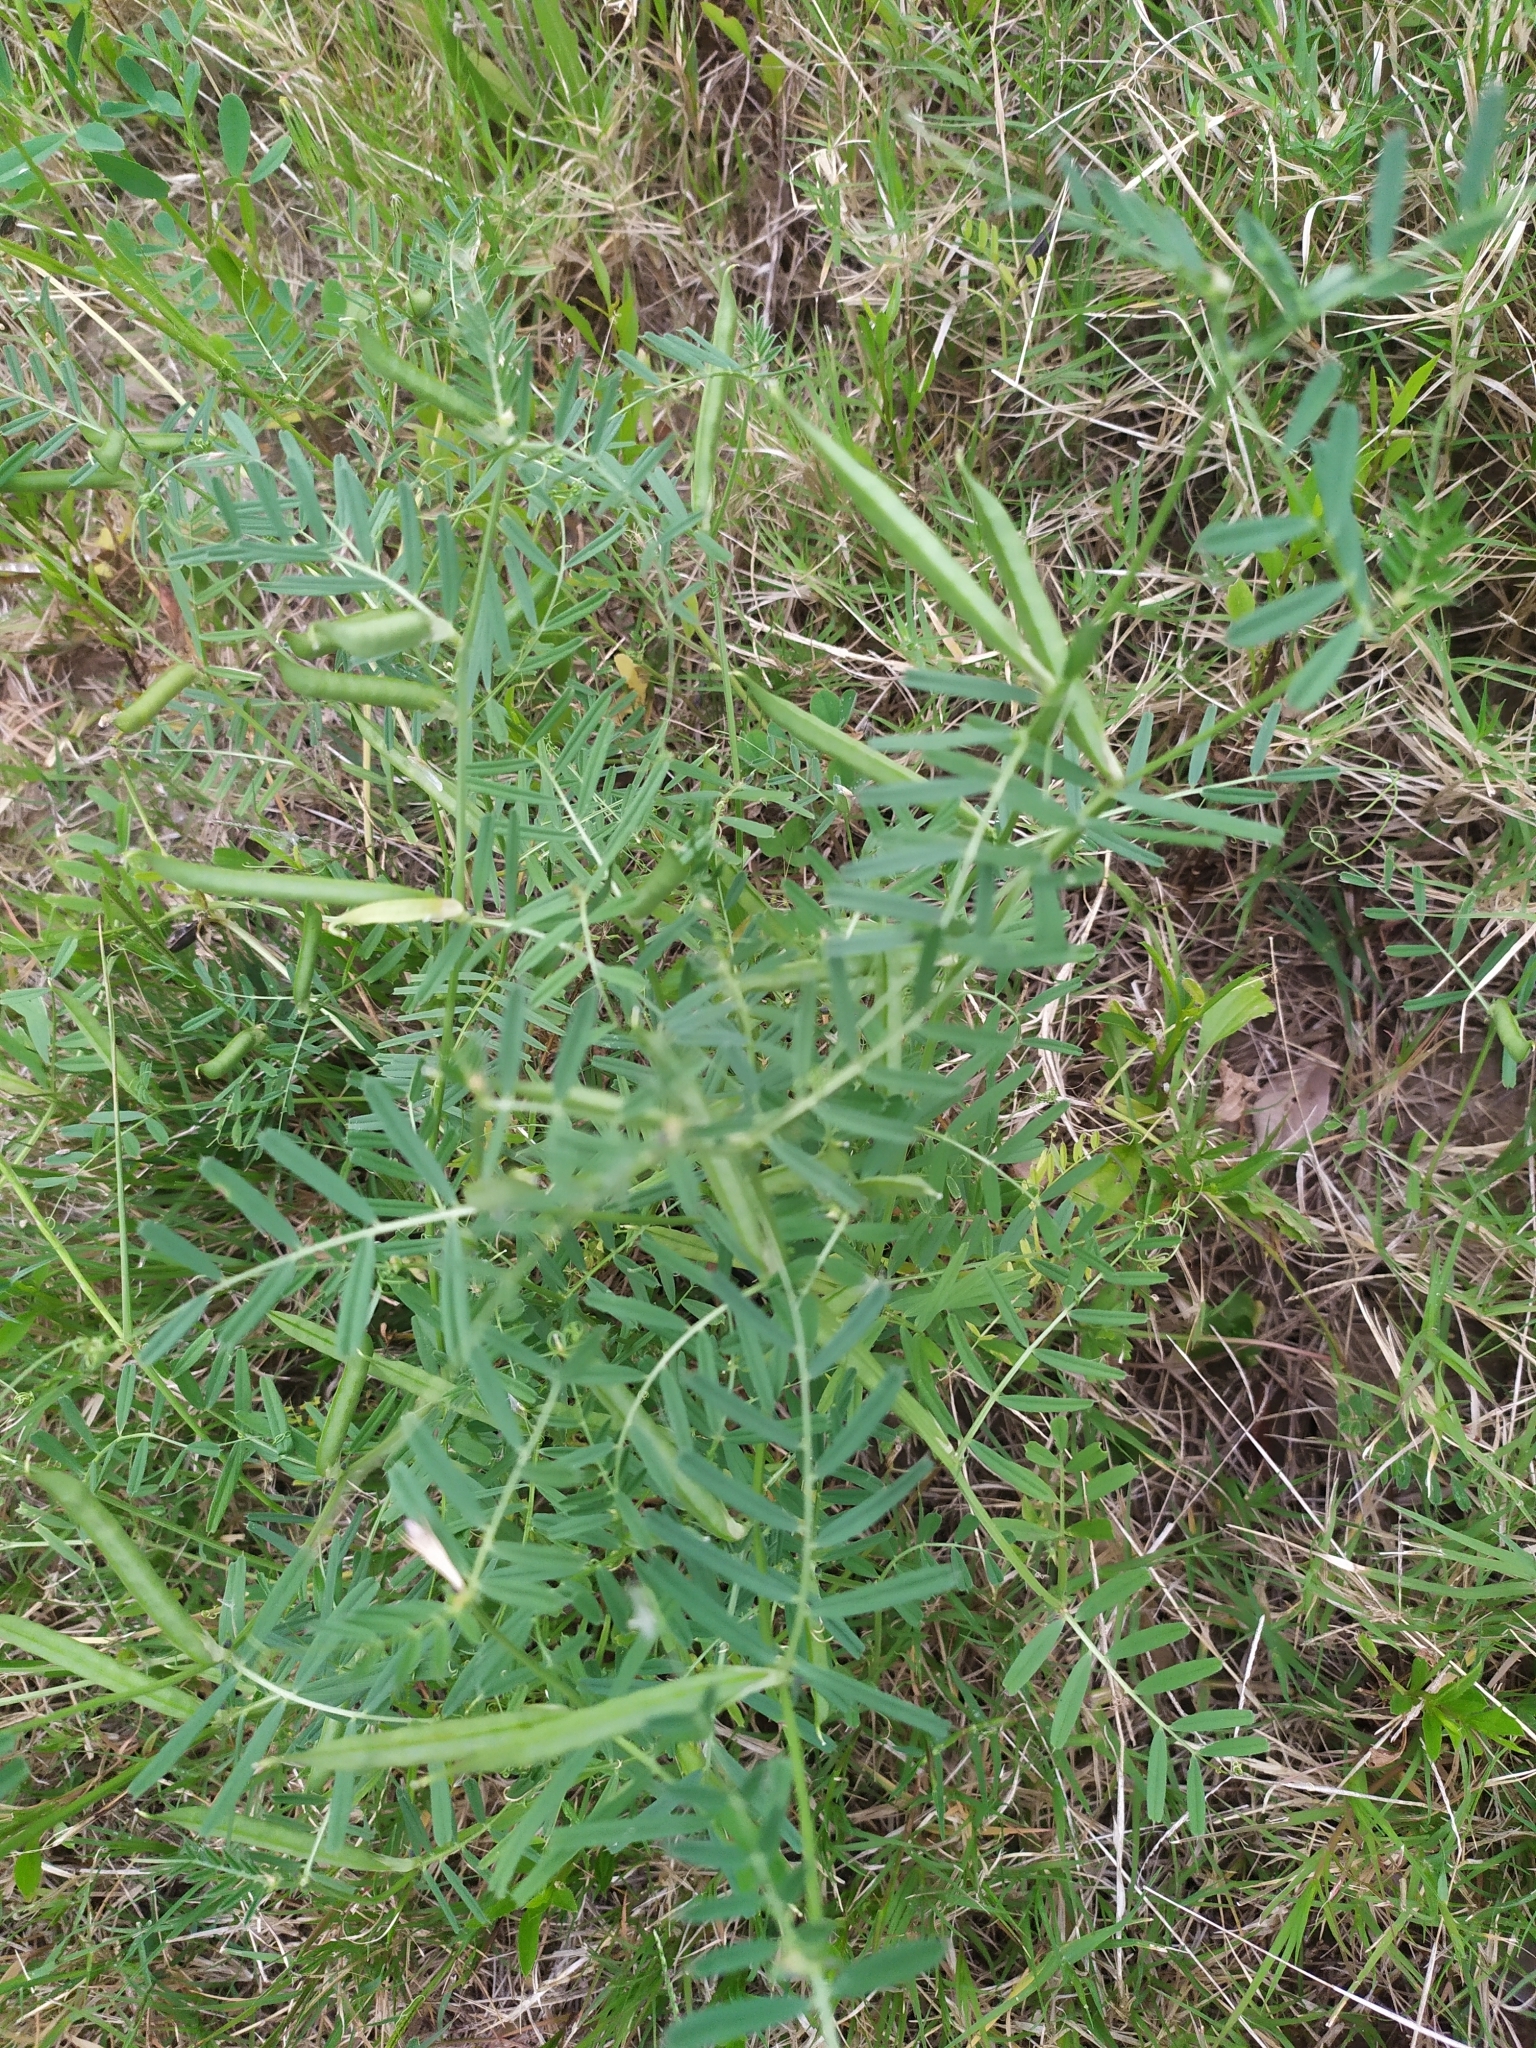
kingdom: Plantae
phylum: Tracheophyta
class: Magnoliopsida
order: Fabales
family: Fabaceae
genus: Vicia
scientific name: Vicia sativa
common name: Garden vetch
